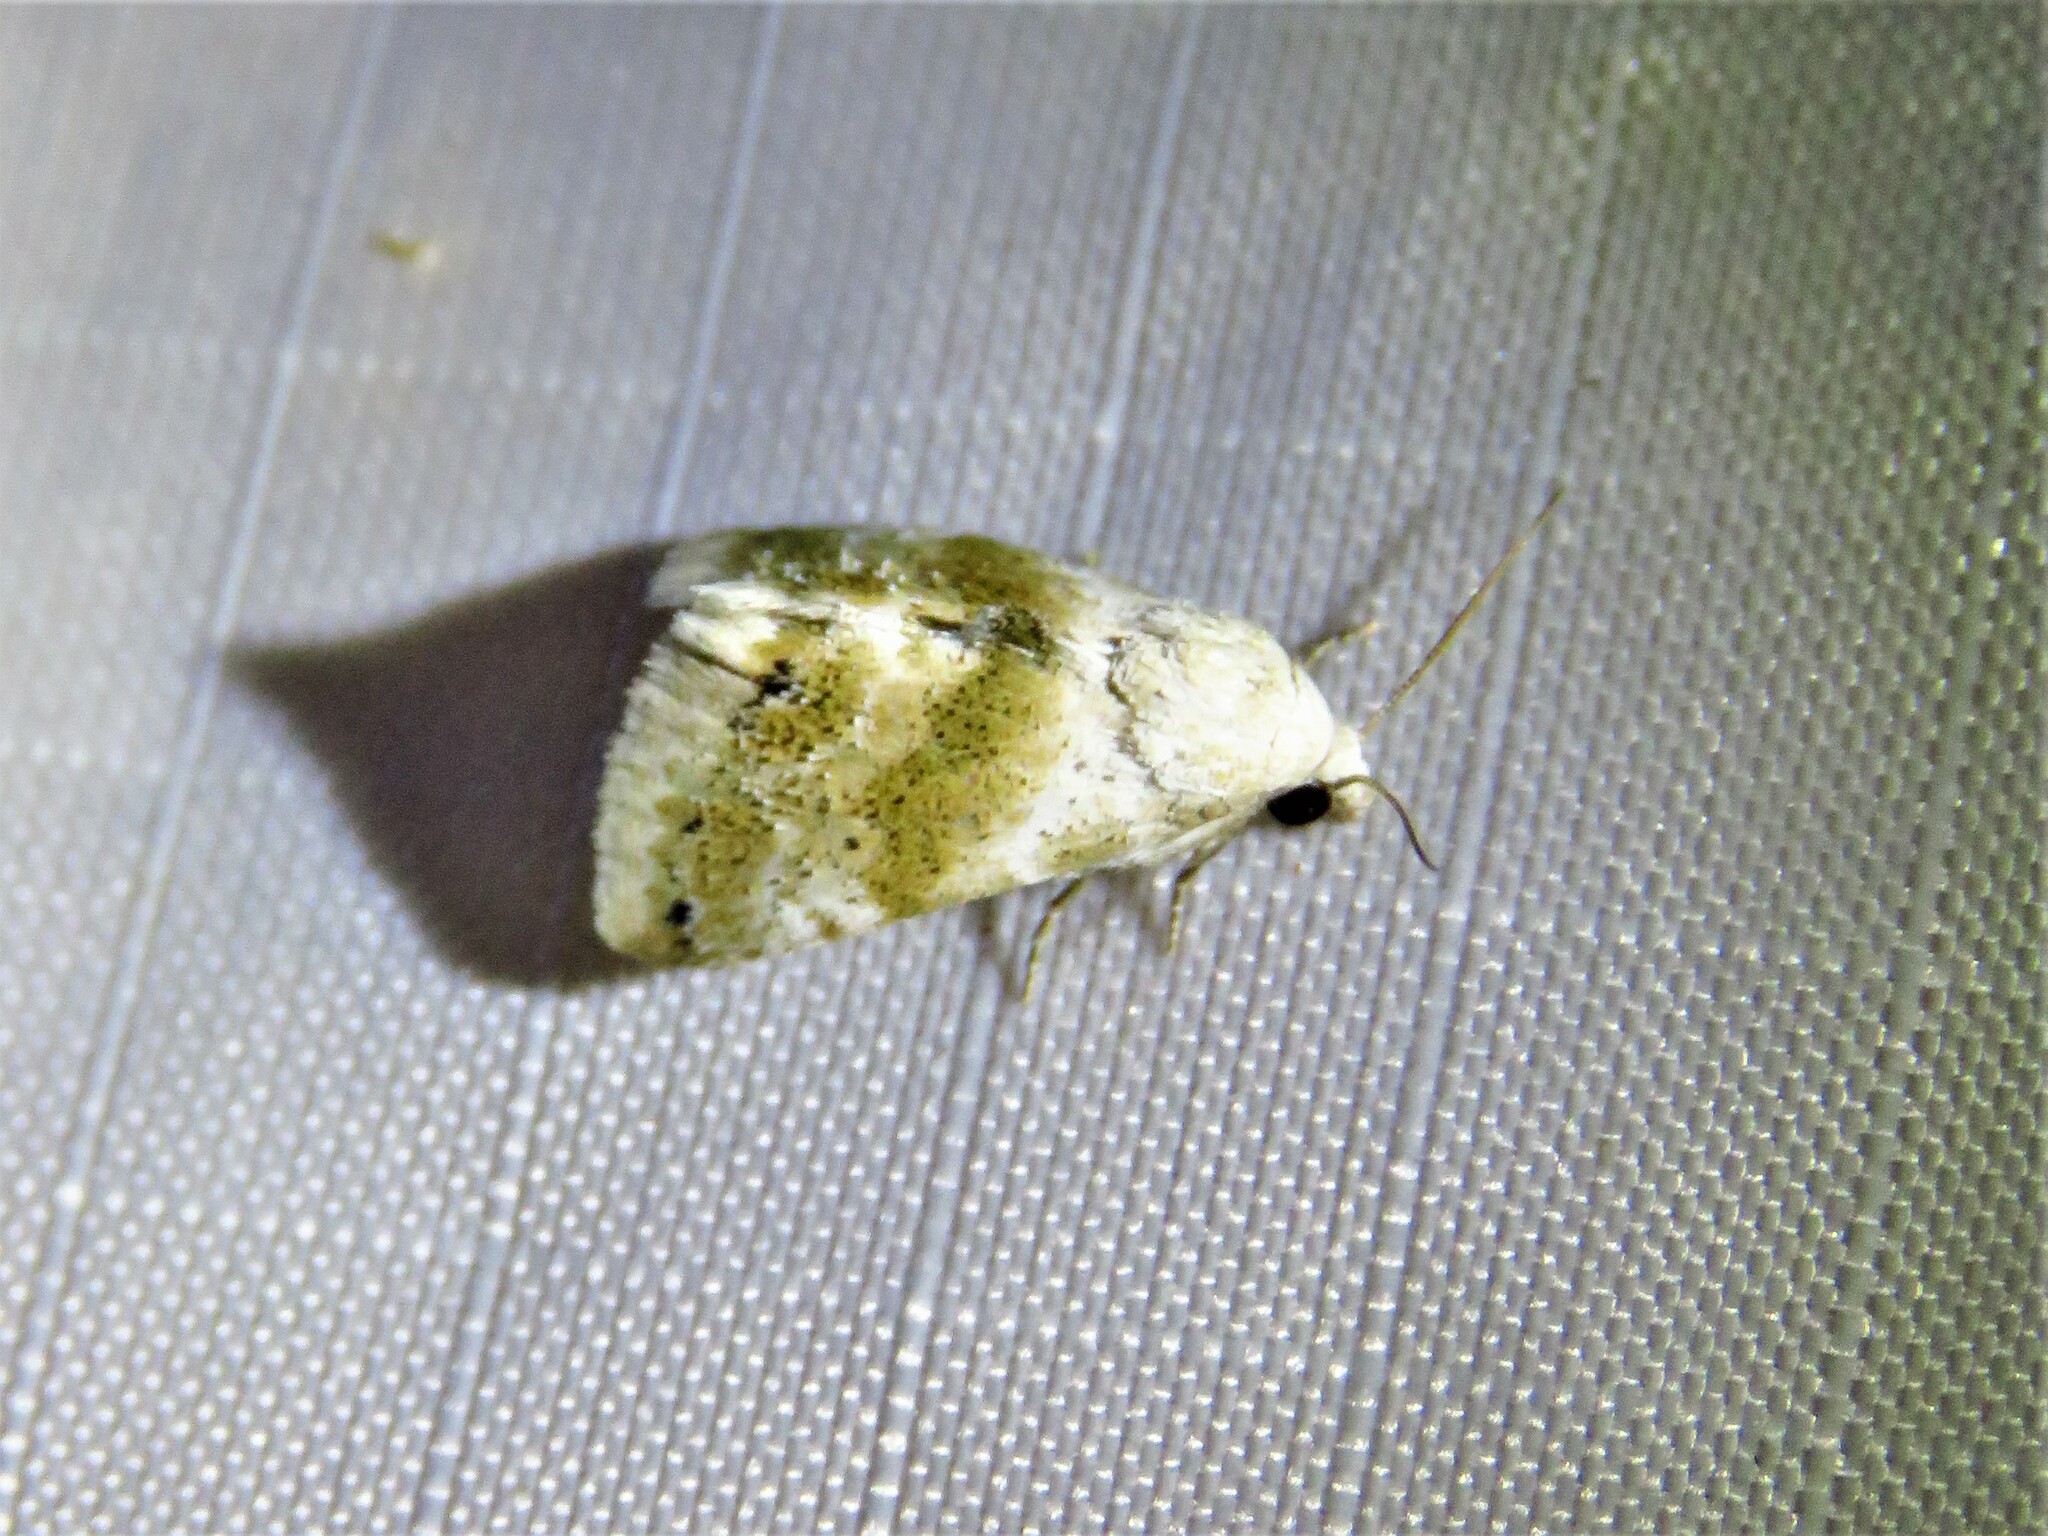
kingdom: Animalia
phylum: Arthropoda
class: Insecta
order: Lepidoptera
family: Noctuidae
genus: Eublemma
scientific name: Eublemma minima
